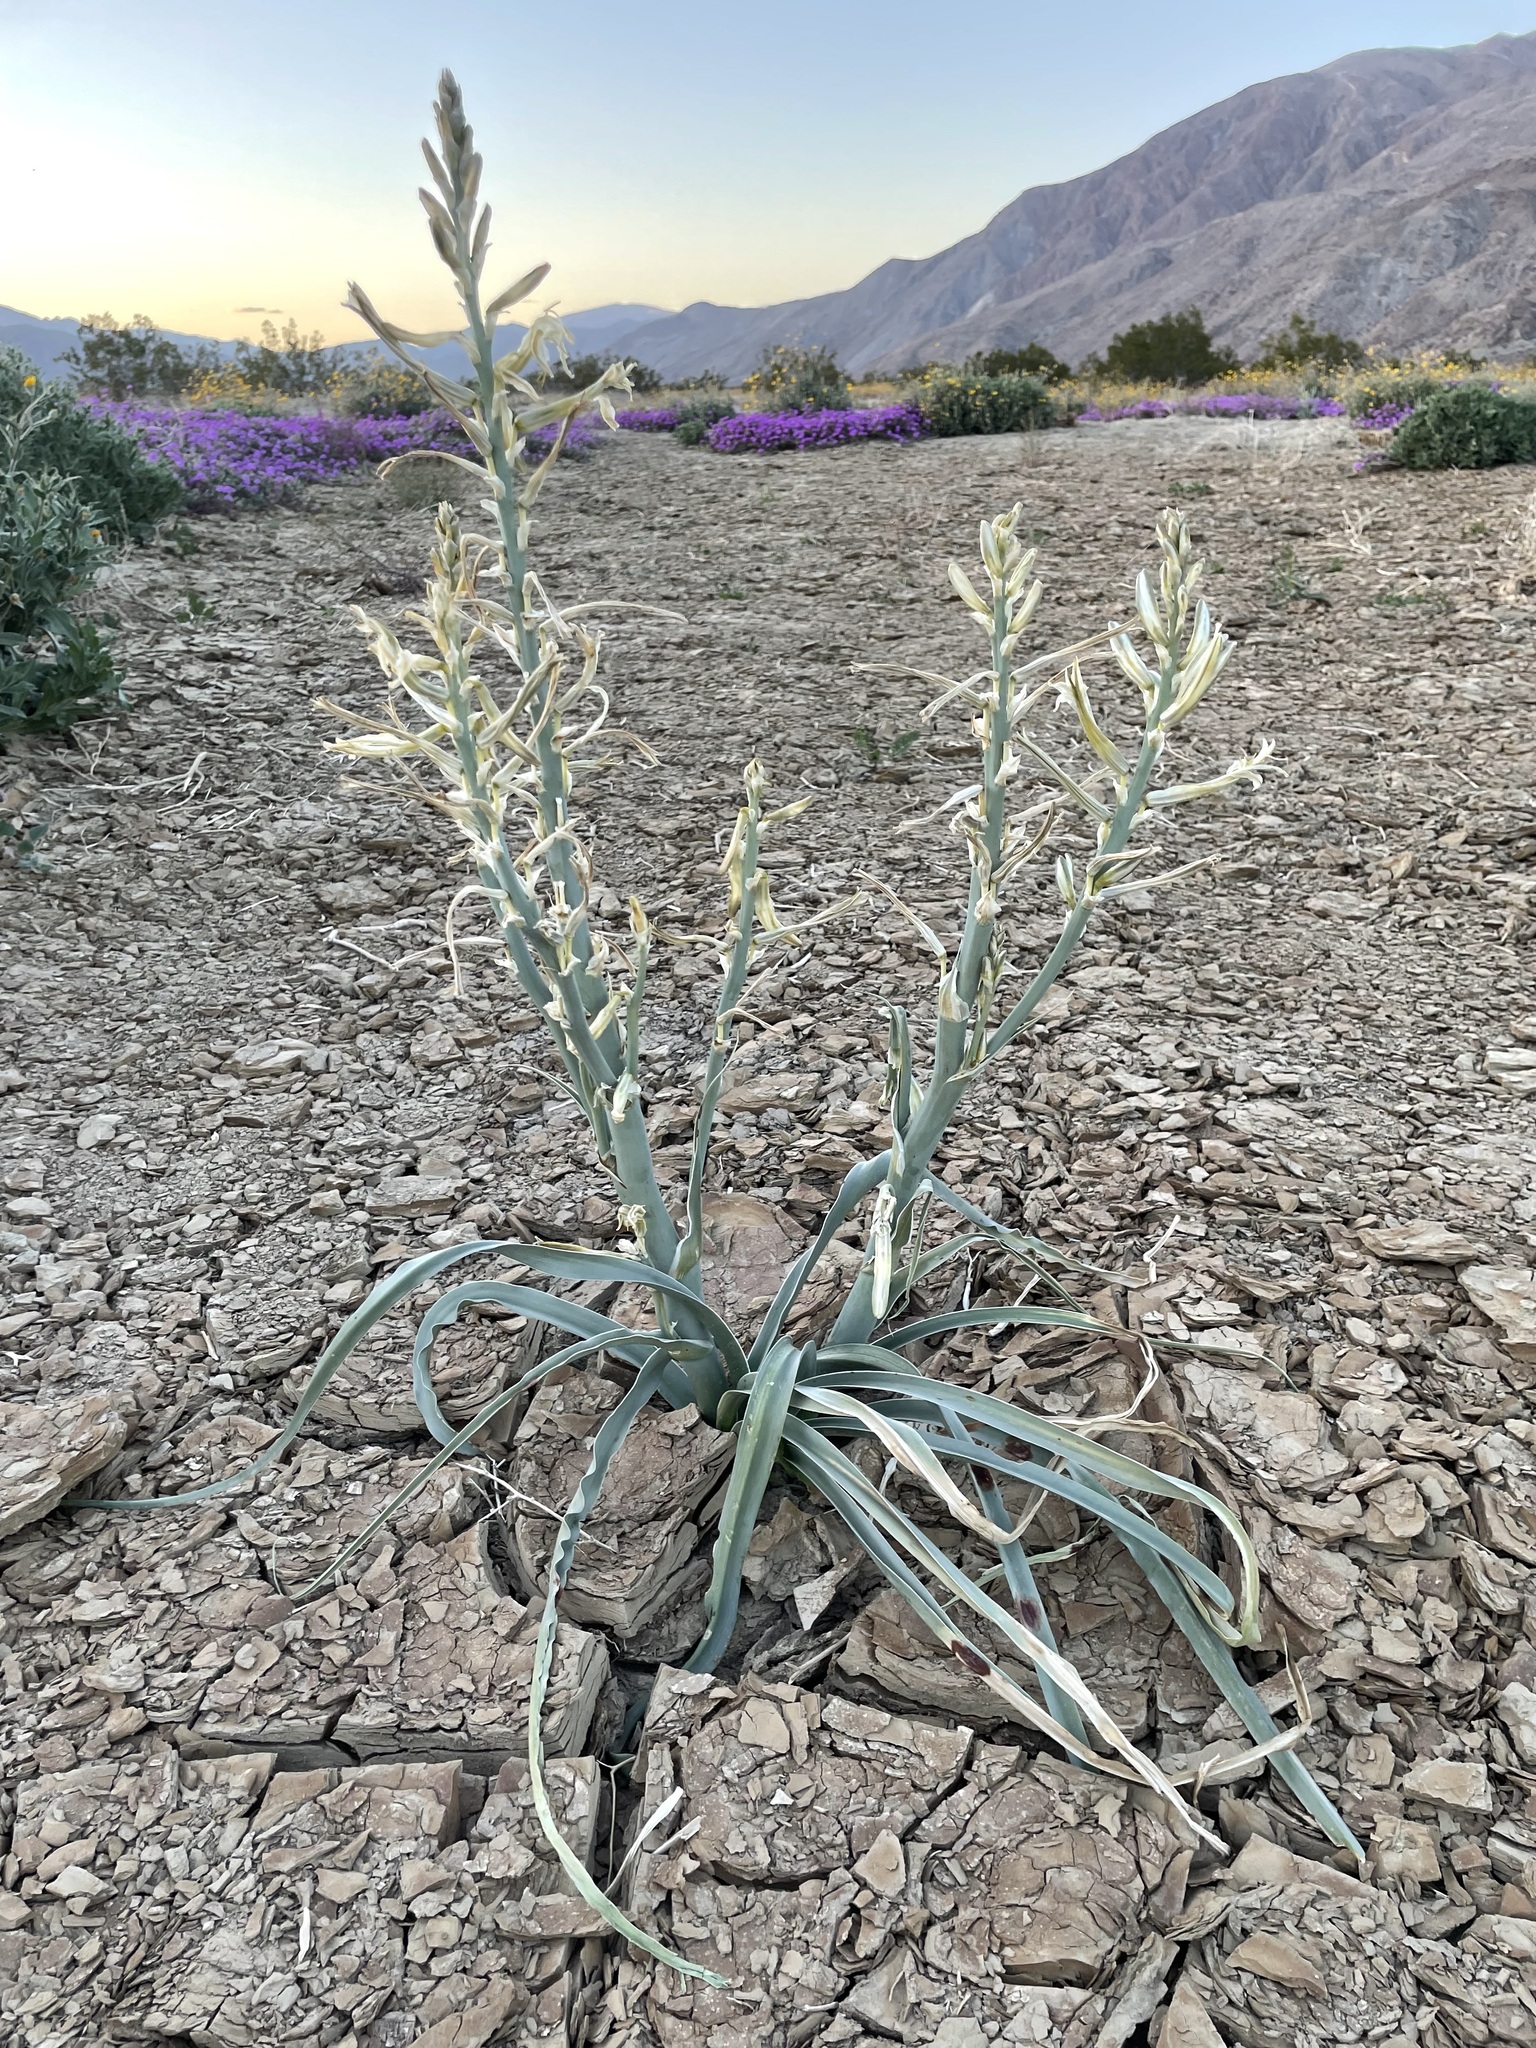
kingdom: Plantae
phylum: Tracheophyta
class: Liliopsida
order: Asparagales
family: Asparagaceae
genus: Hesperocallis
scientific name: Hesperocallis undulata
